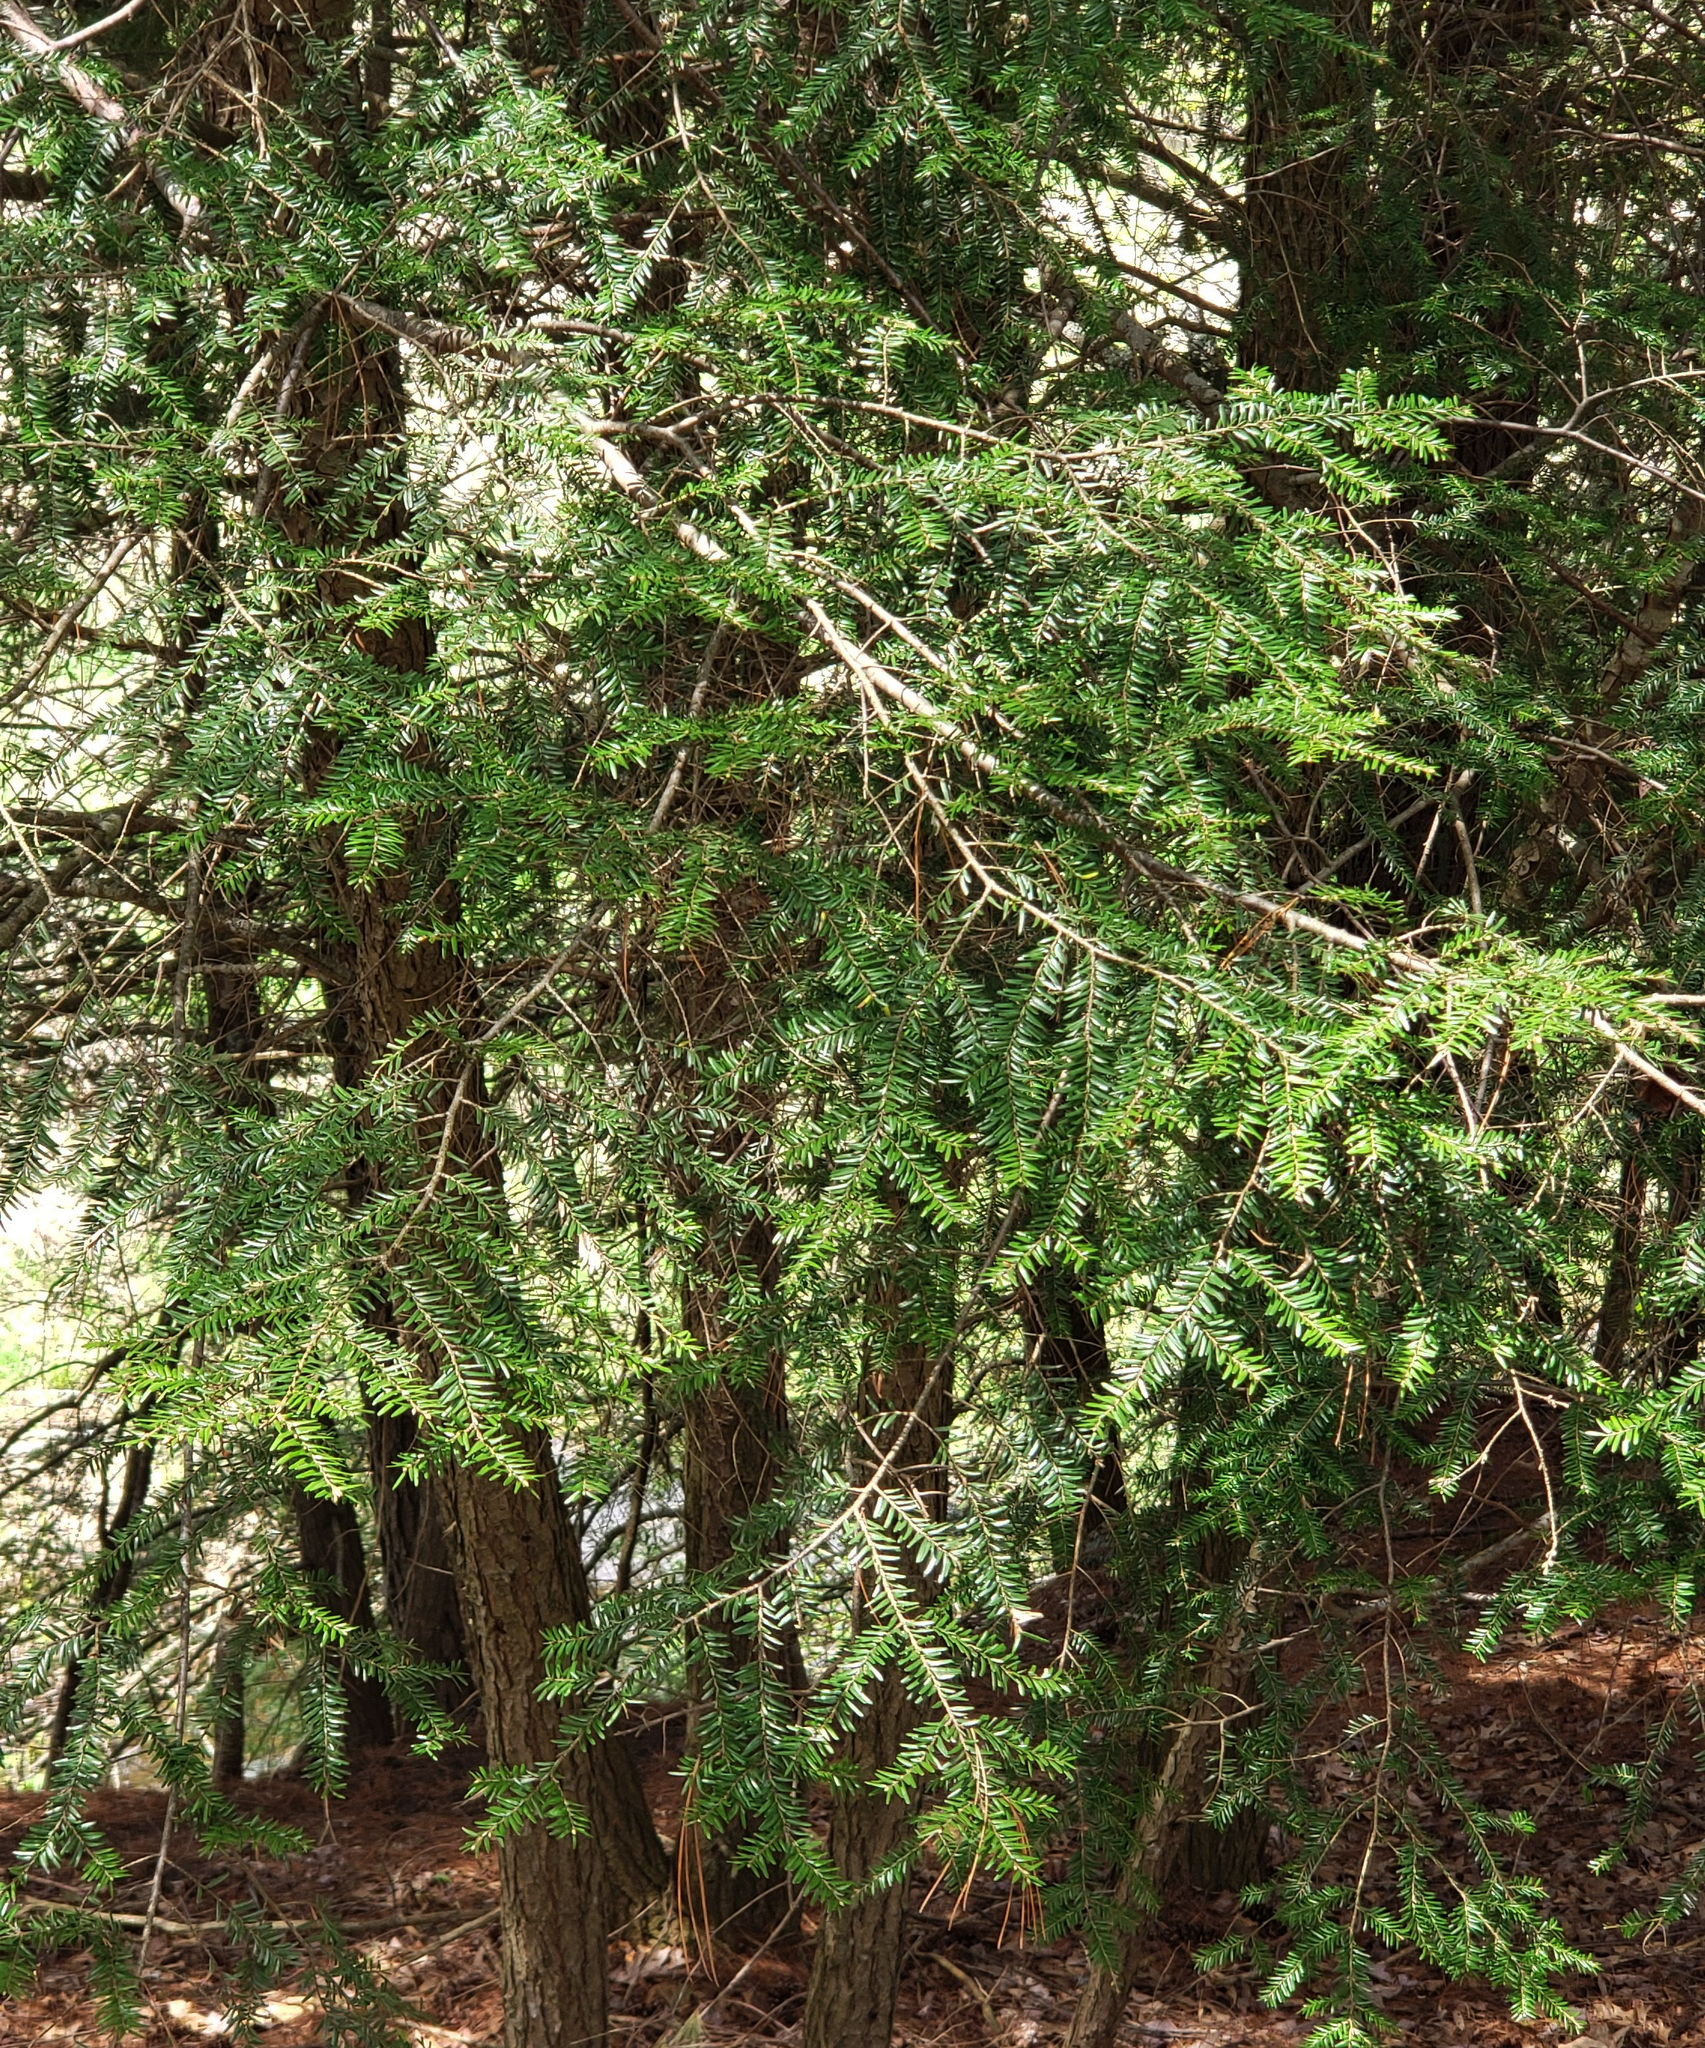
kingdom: Plantae
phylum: Tracheophyta
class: Pinopsida
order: Pinales
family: Pinaceae
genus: Tsuga
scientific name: Tsuga canadensis
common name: Eastern hemlock
